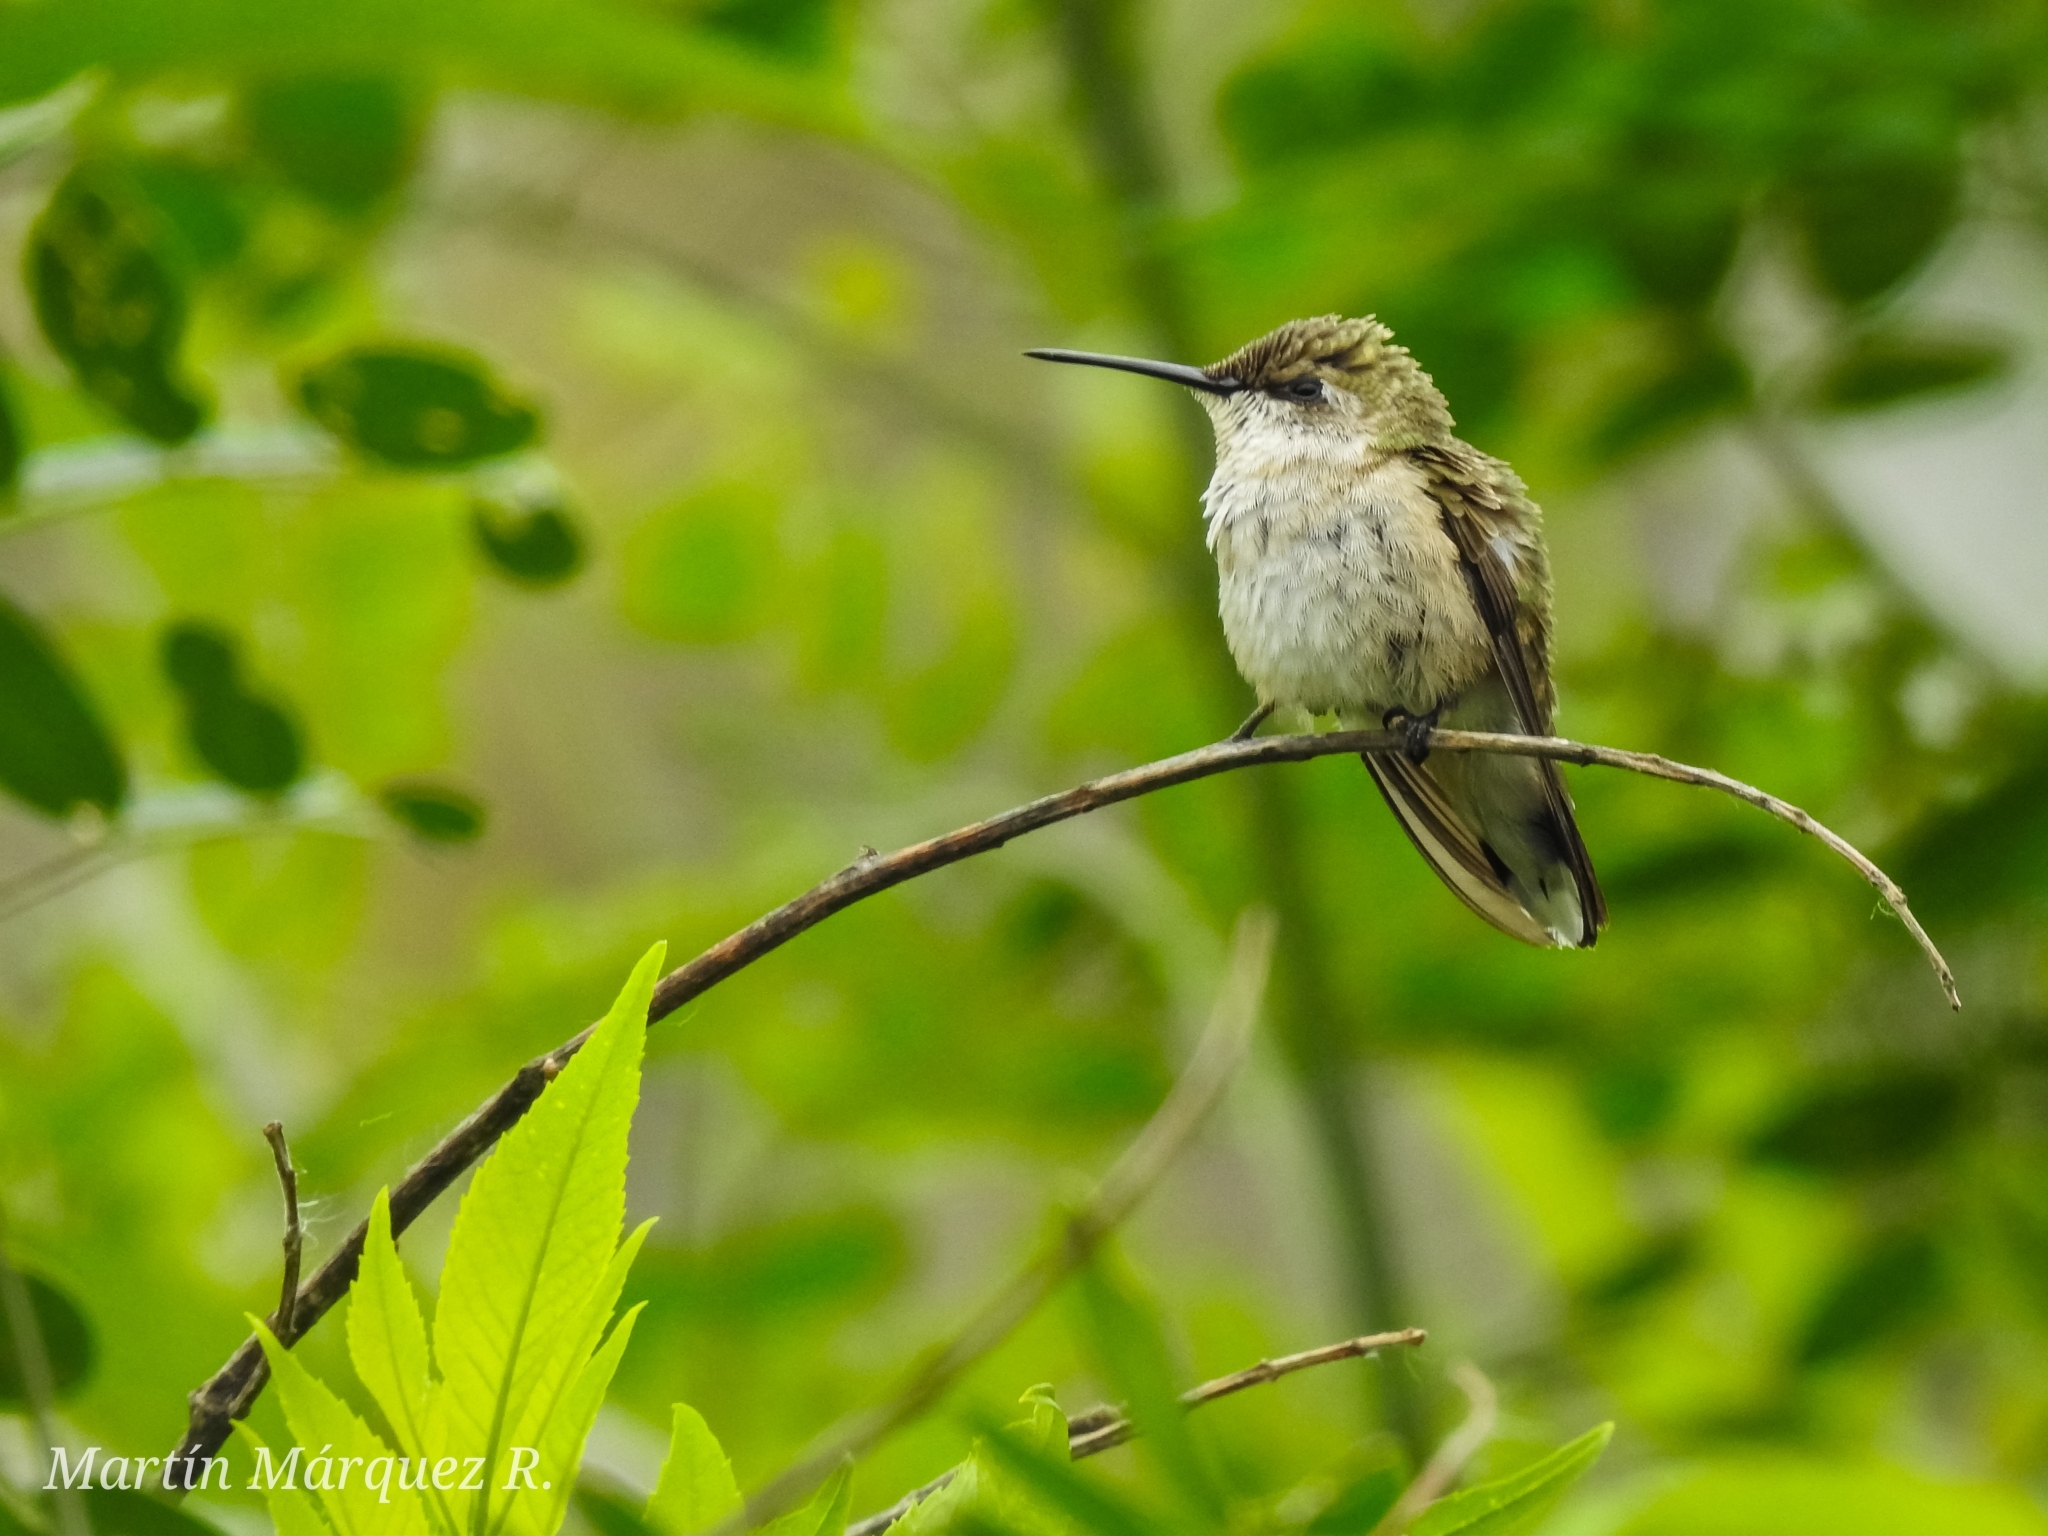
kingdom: Animalia
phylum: Chordata
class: Aves
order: Apodiformes
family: Trochilidae
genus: Archilochus
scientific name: Archilochus colubris
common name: Ruby-throated hummingbird
